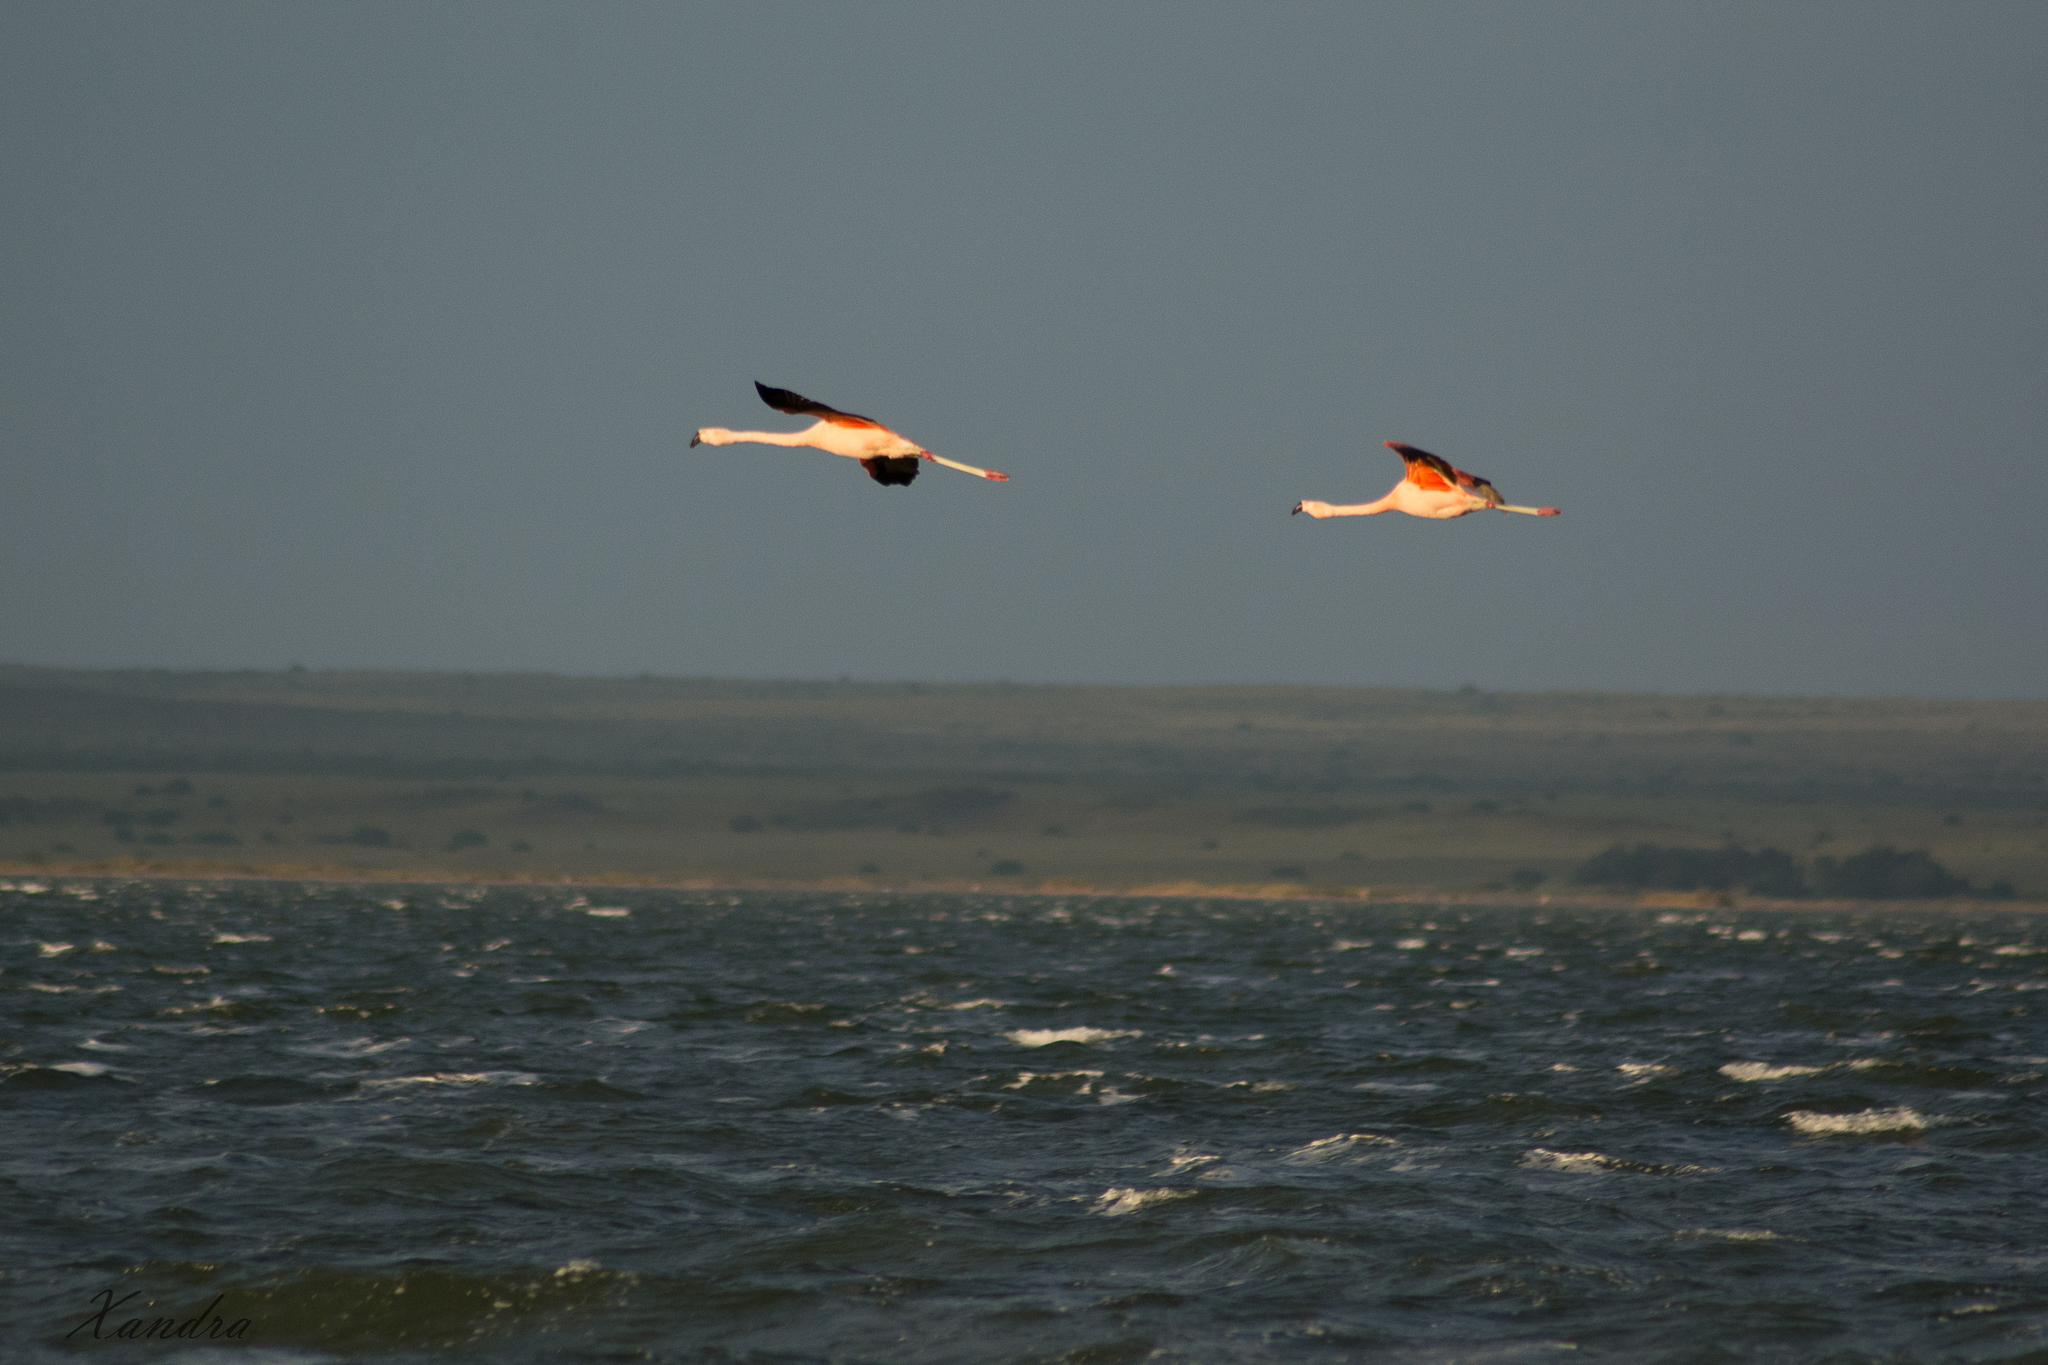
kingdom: Animalia
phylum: Chordata
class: Aves
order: Phoenicopteriformes
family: Phoenicopteridae
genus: Phoenicopterus
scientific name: Phoenicopterus chilensis
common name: Chilean flamingo
